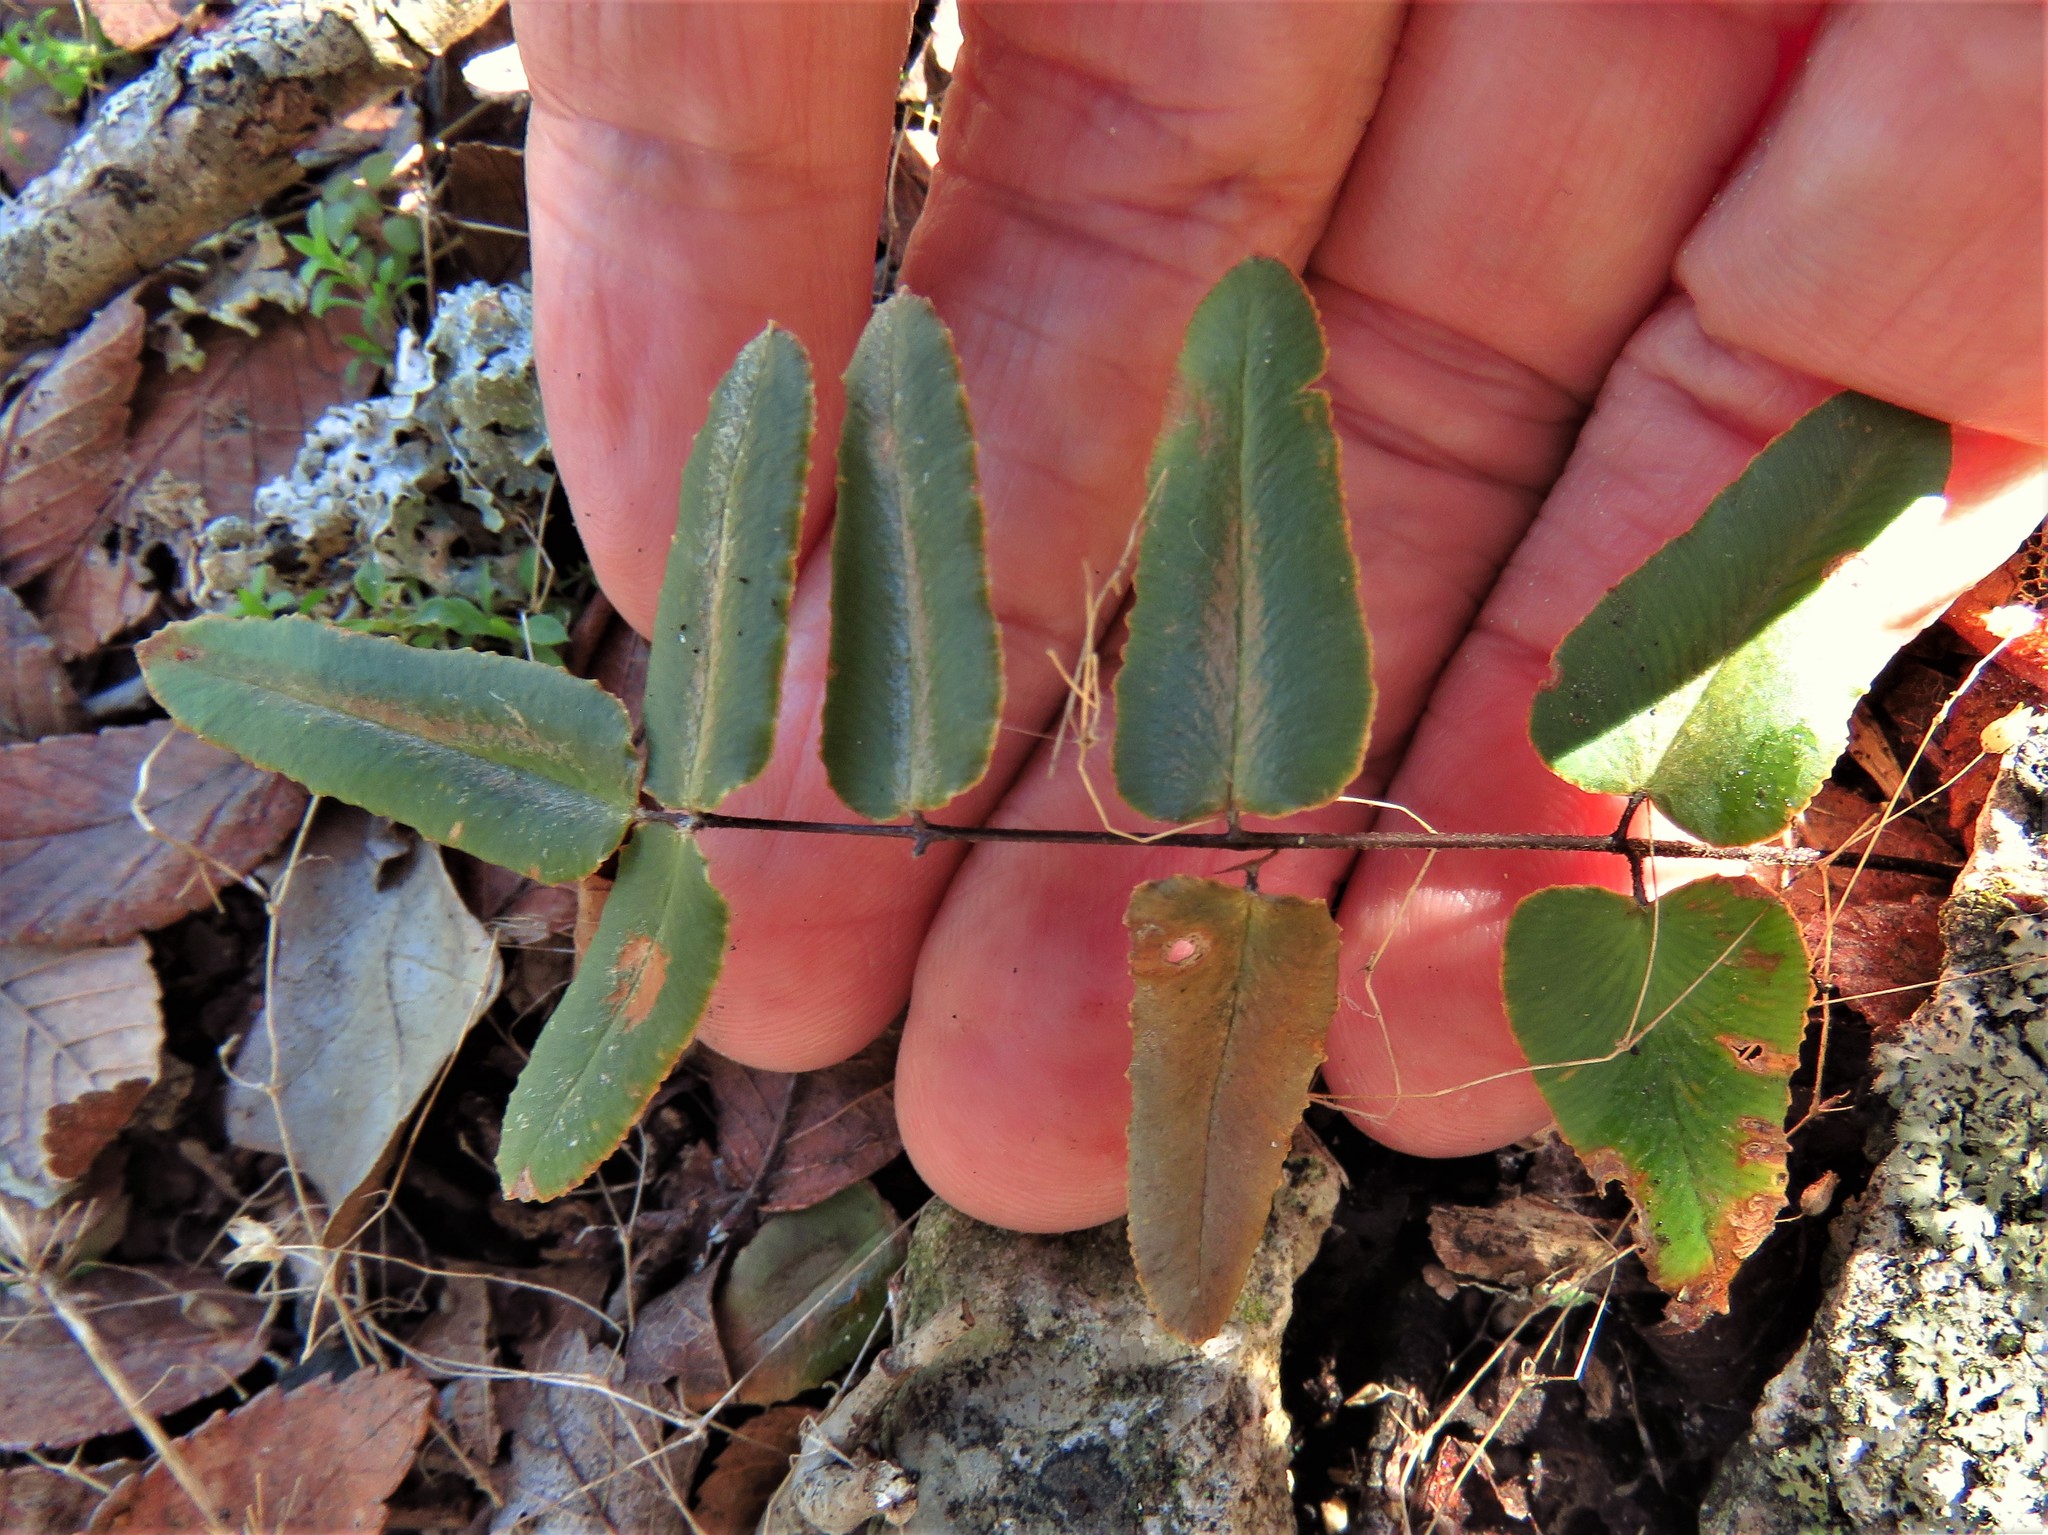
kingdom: Plantae
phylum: Tracheophyta
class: Polypodiopsida
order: Polypodiales
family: Pteridaceae
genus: Pellaea
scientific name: Pellaea atropurpurea
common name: Hairy cliffbrake
